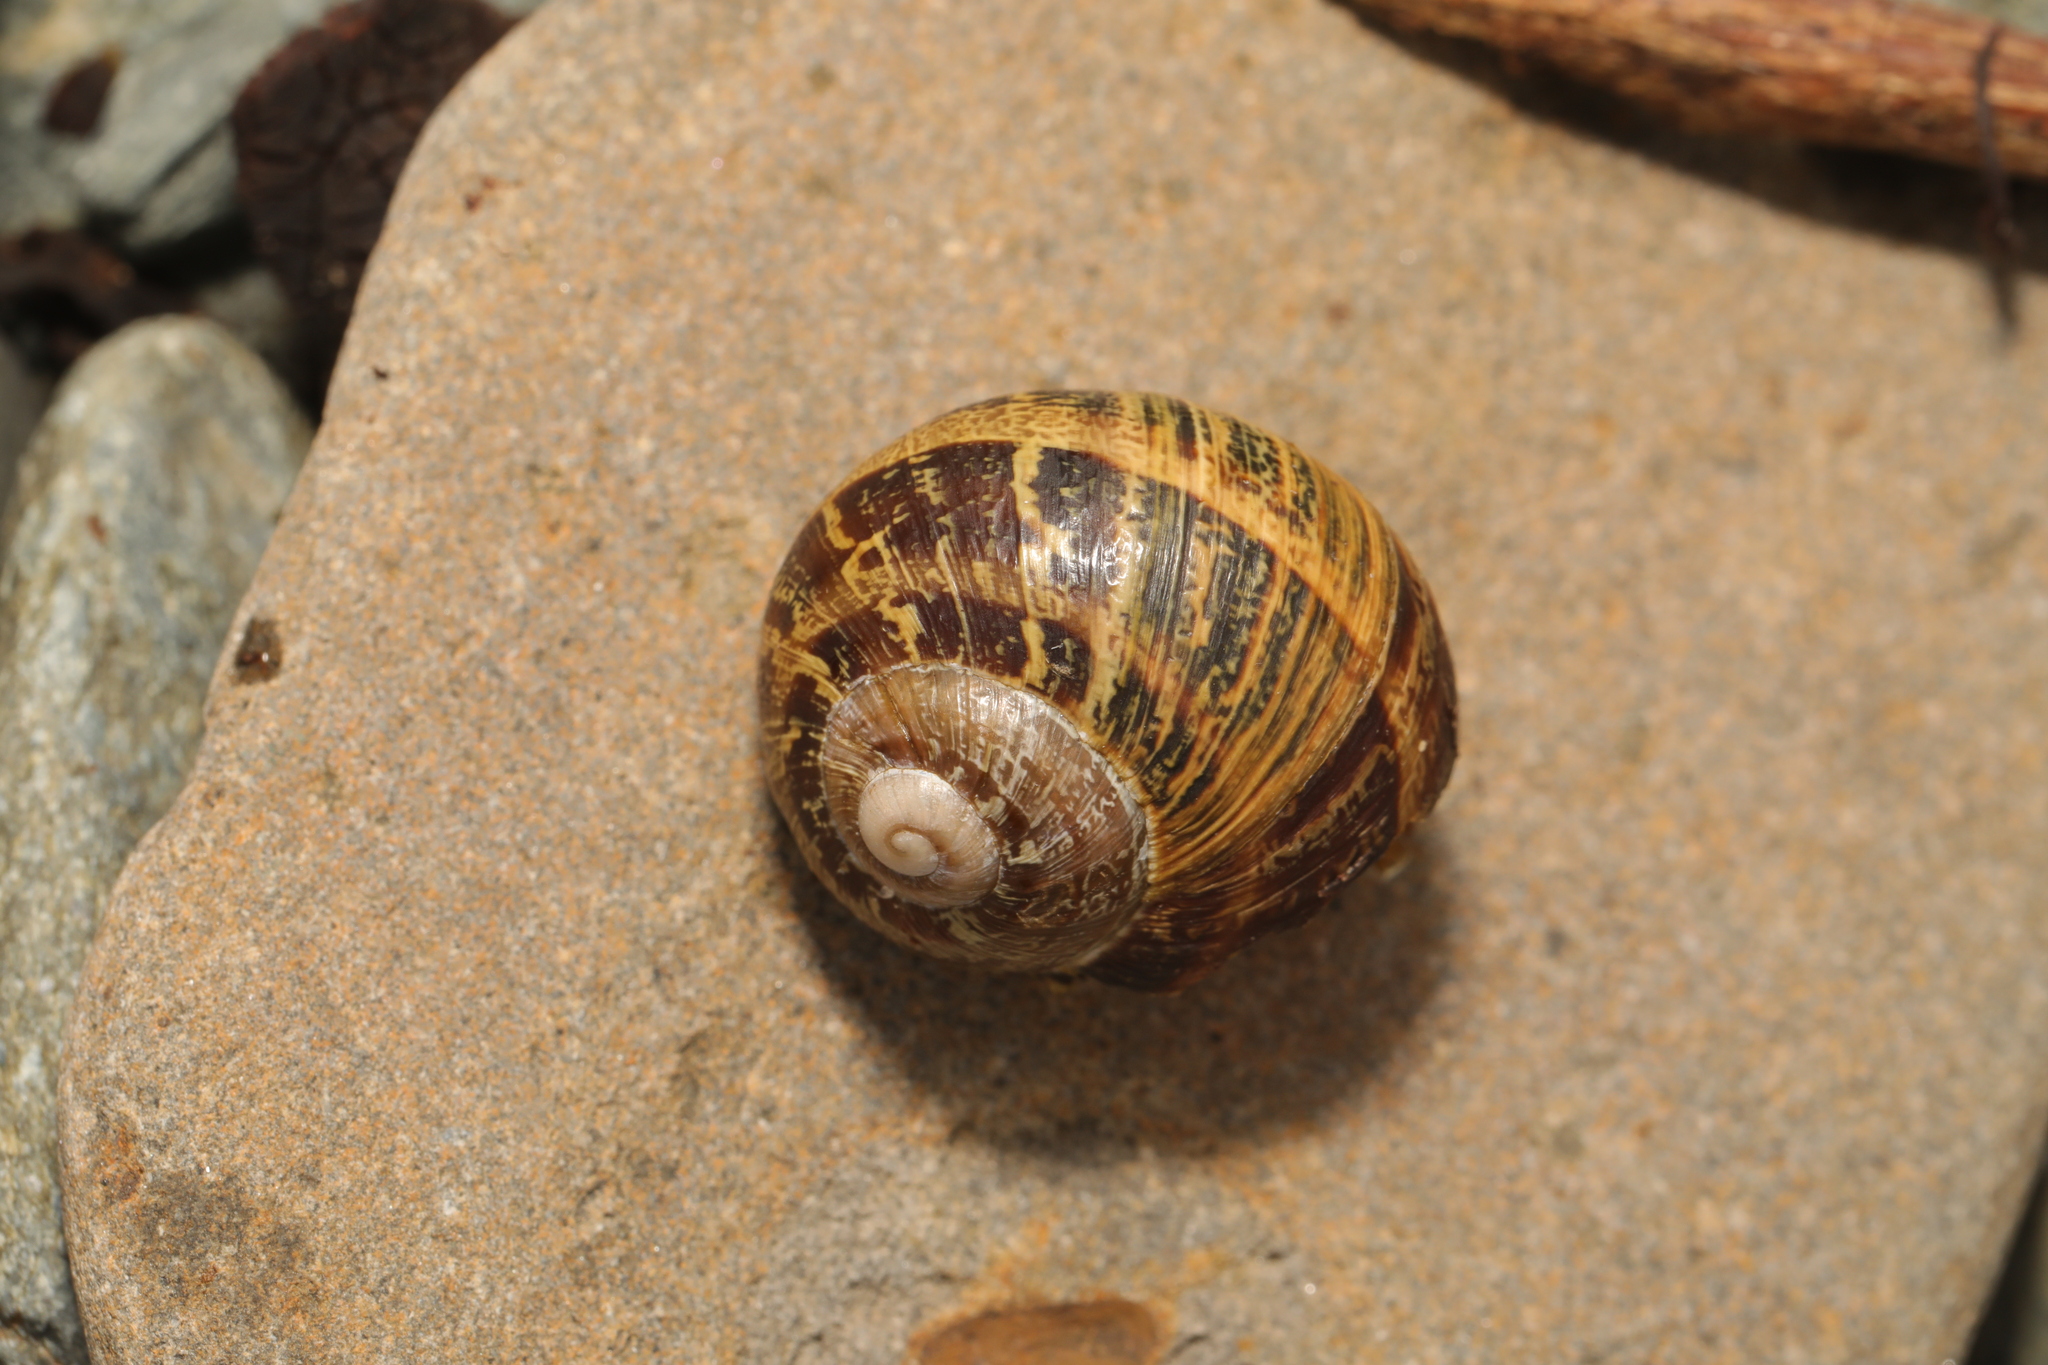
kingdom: Animalia
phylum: Mollusca
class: Gastropoda
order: Stylommatophora
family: Helicidae
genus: Cornu
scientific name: Cornu aspersum
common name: Brown garden snail
